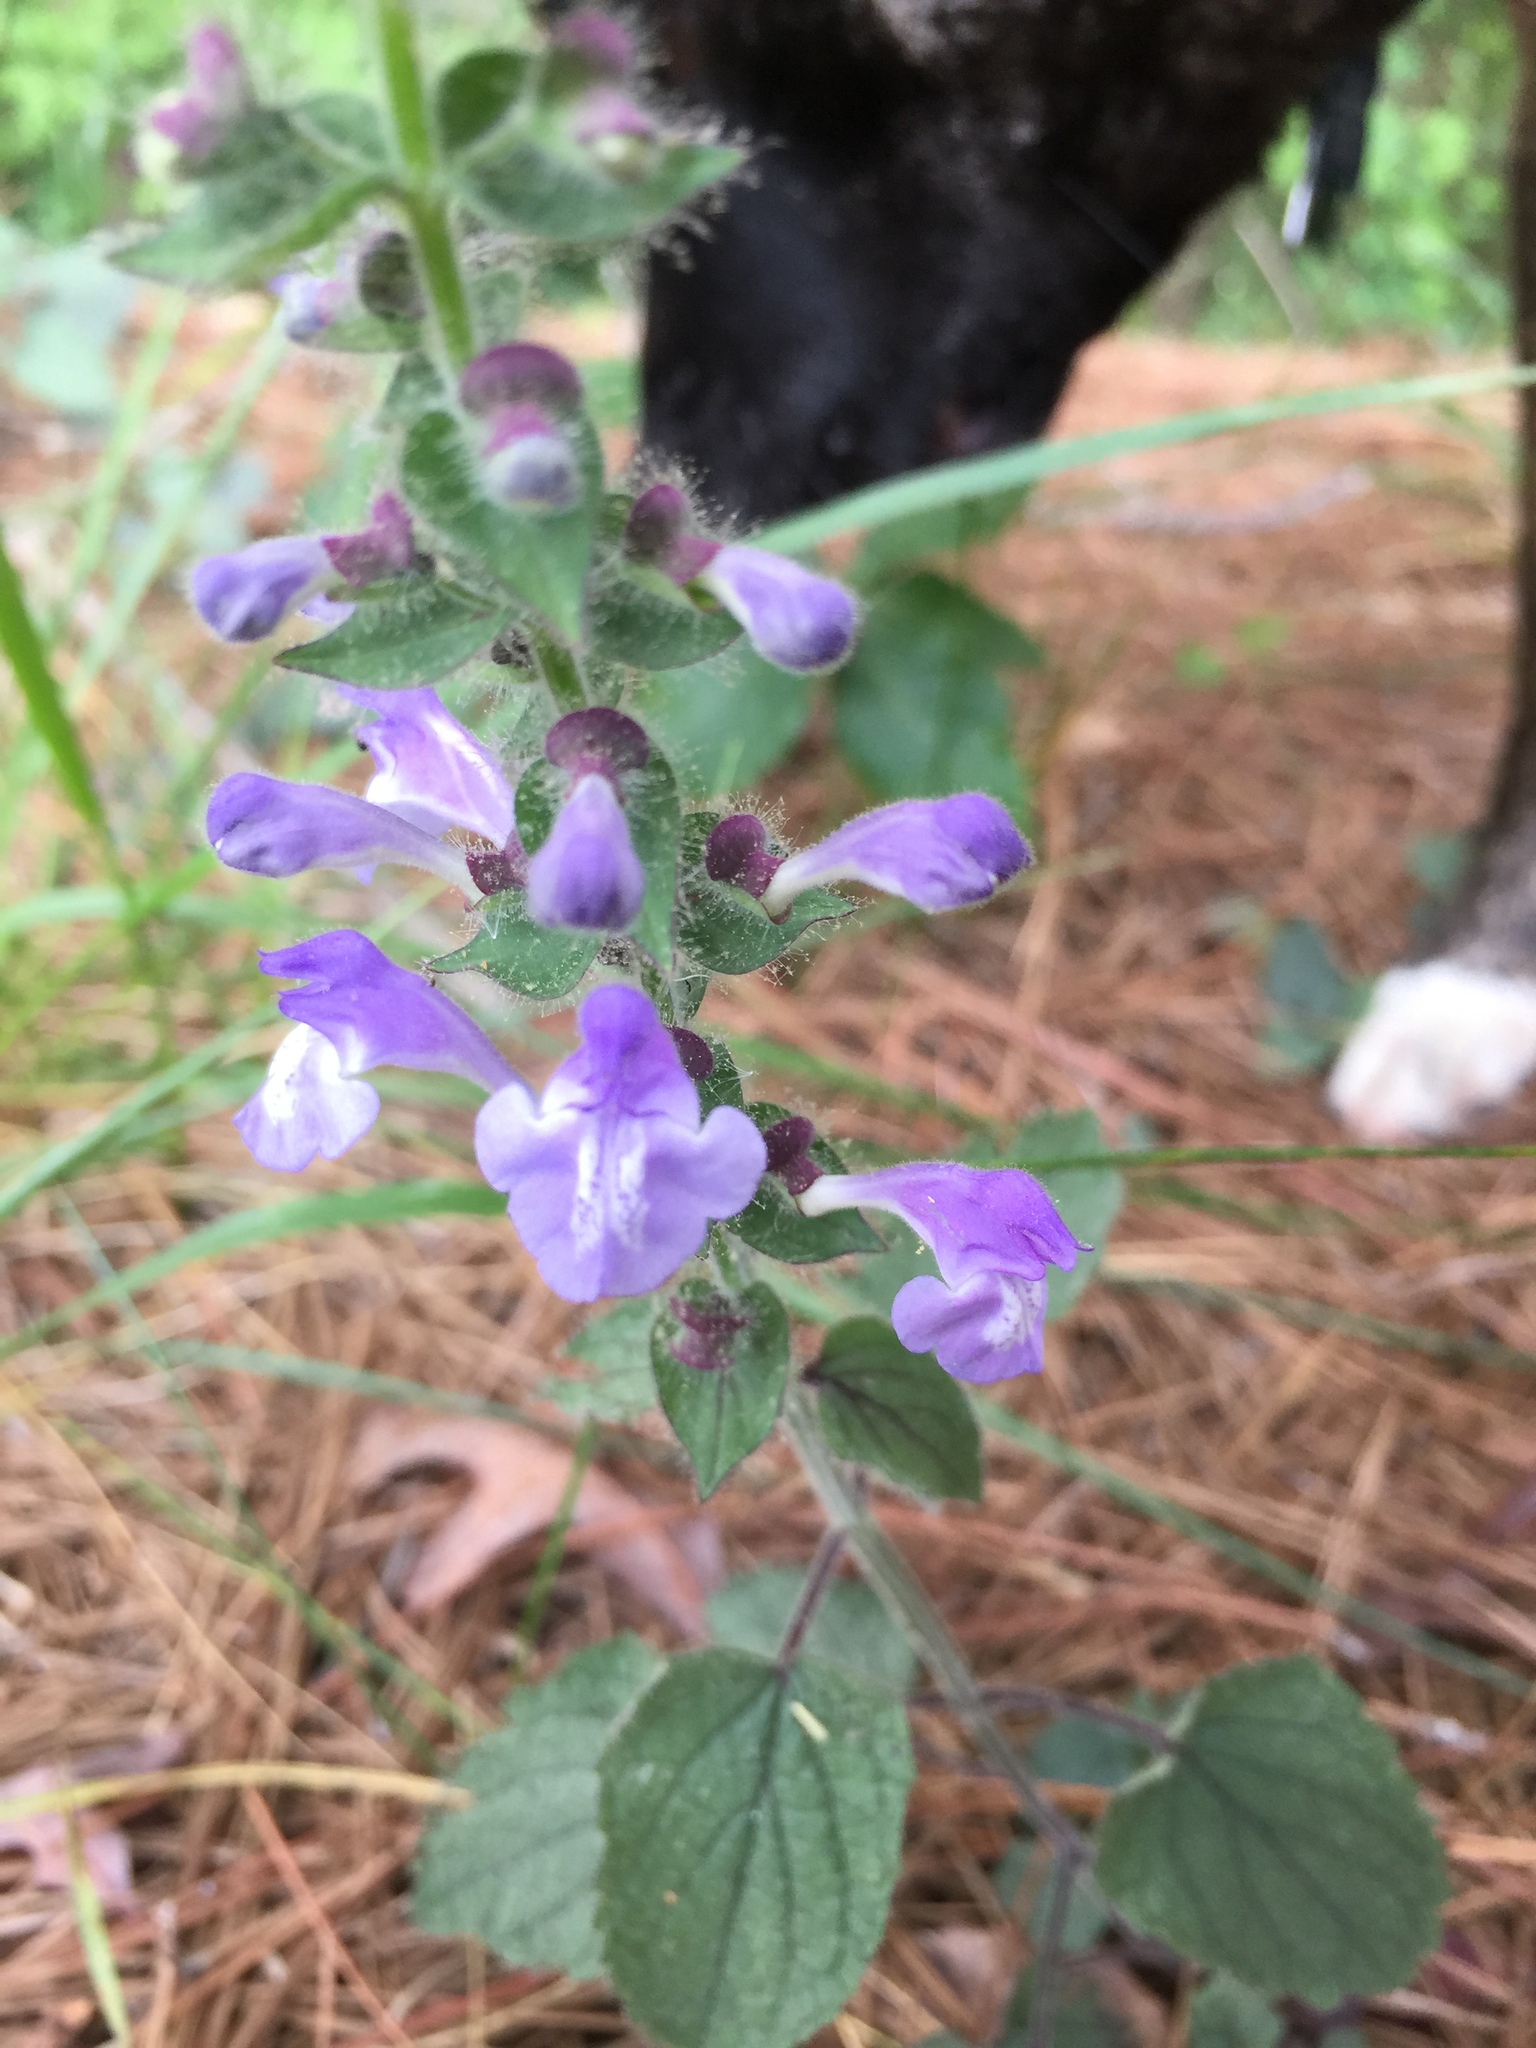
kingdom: Plantae
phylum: Tracheophyta
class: Magnoliopsida
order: Lamiales
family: Lamiaceae
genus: Scutellaria
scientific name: Scutellaria ovata
